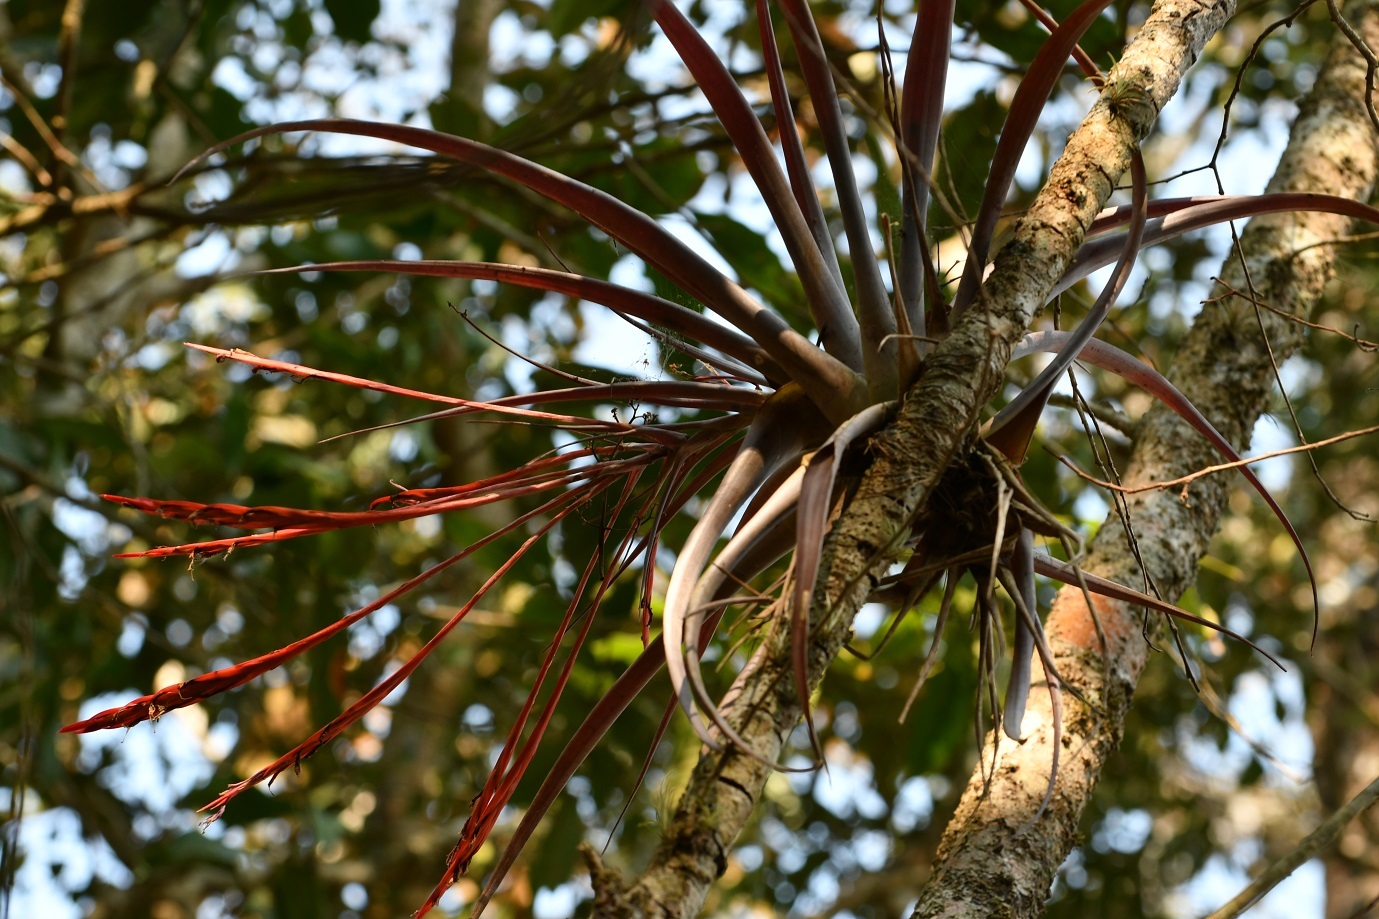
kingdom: Plantae
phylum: Tracheophyta
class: Liliopsida
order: Poales
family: Bromeliaceae
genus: Tillandsia
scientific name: Tillandsia flabellata
